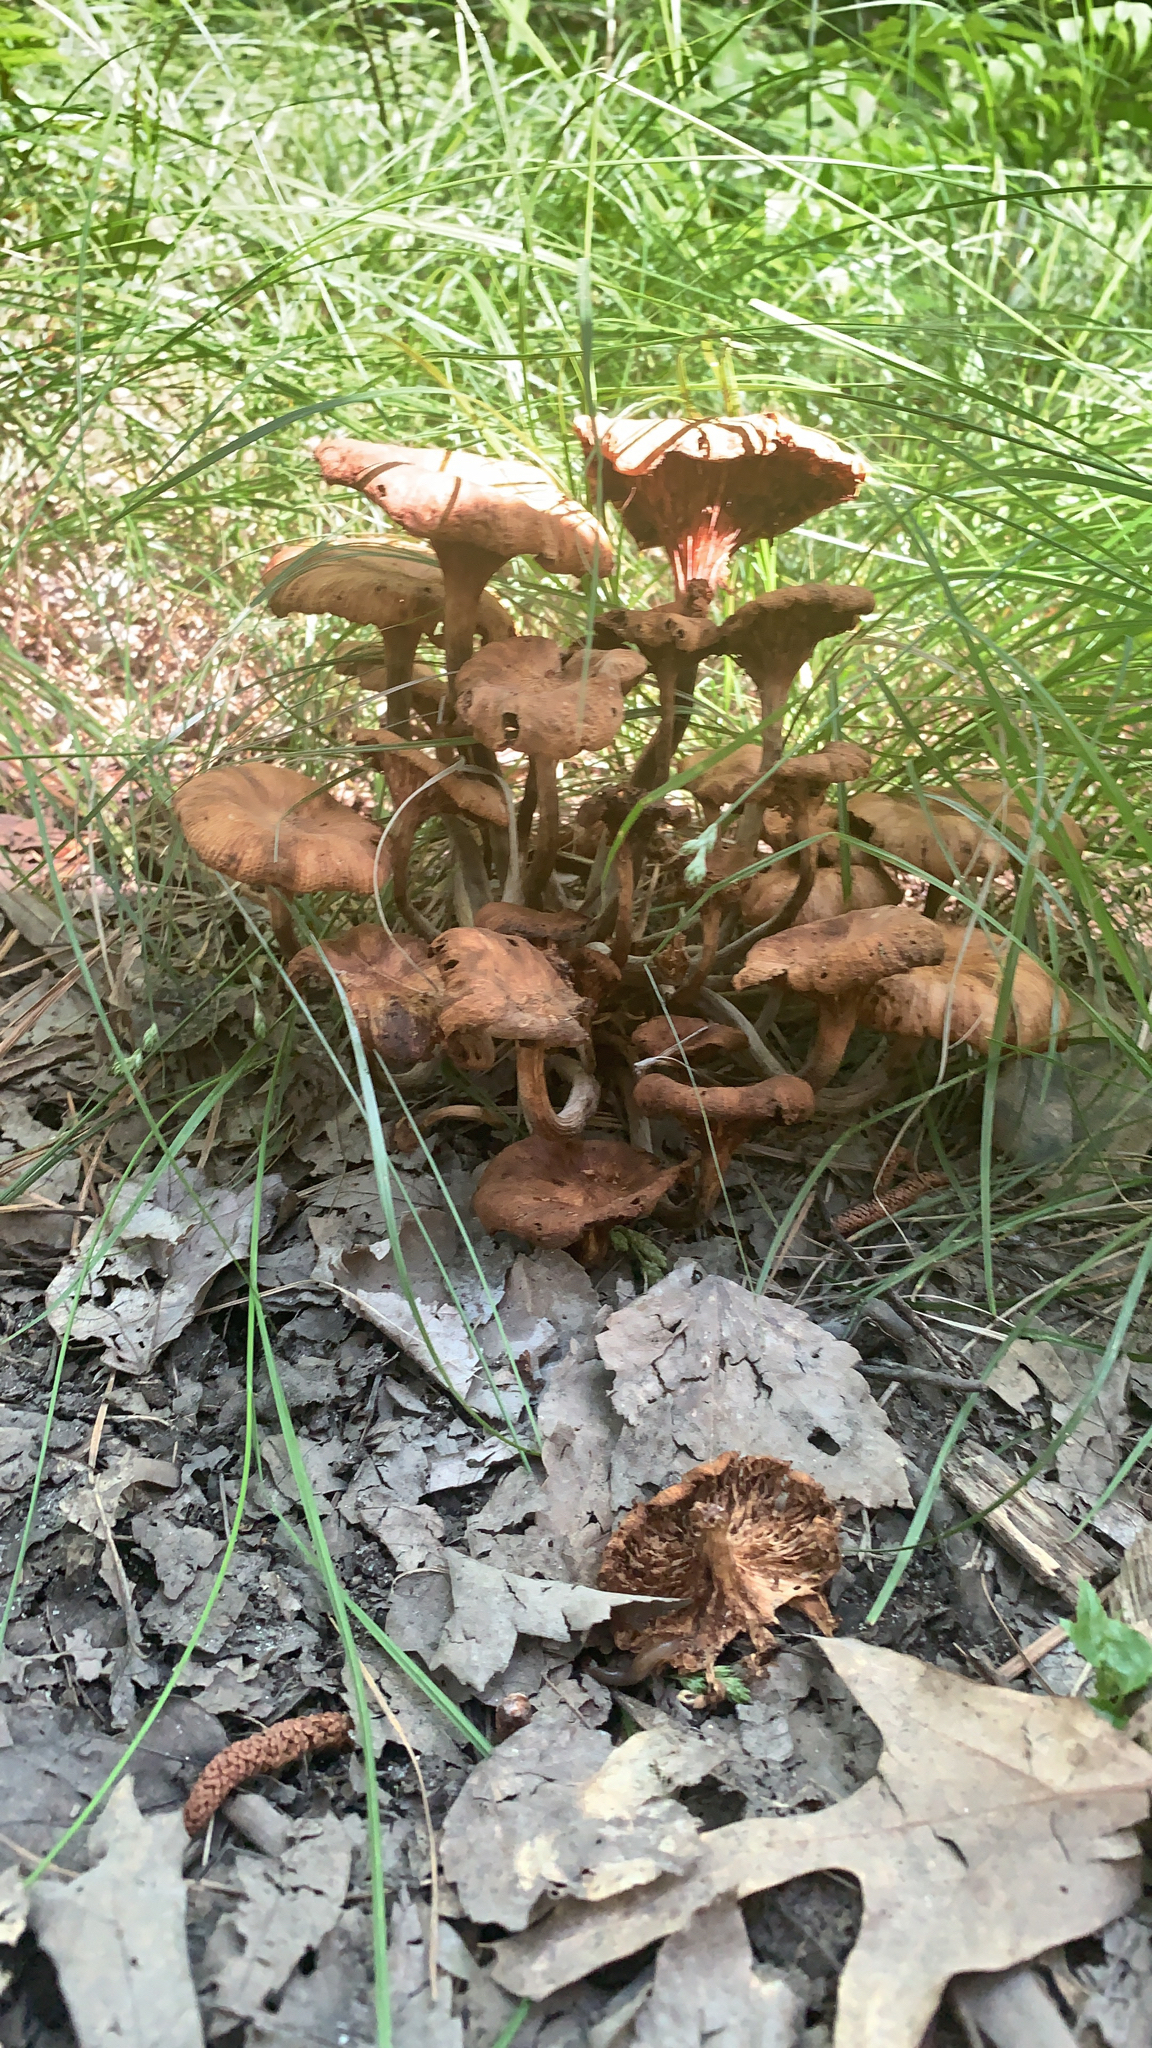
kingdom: Fungi
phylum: Basidiomycota
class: Agaricomycetes
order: Agaricales
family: Physalacriaceae
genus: Desarmillaria
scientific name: Desarmillaria caespitosa
